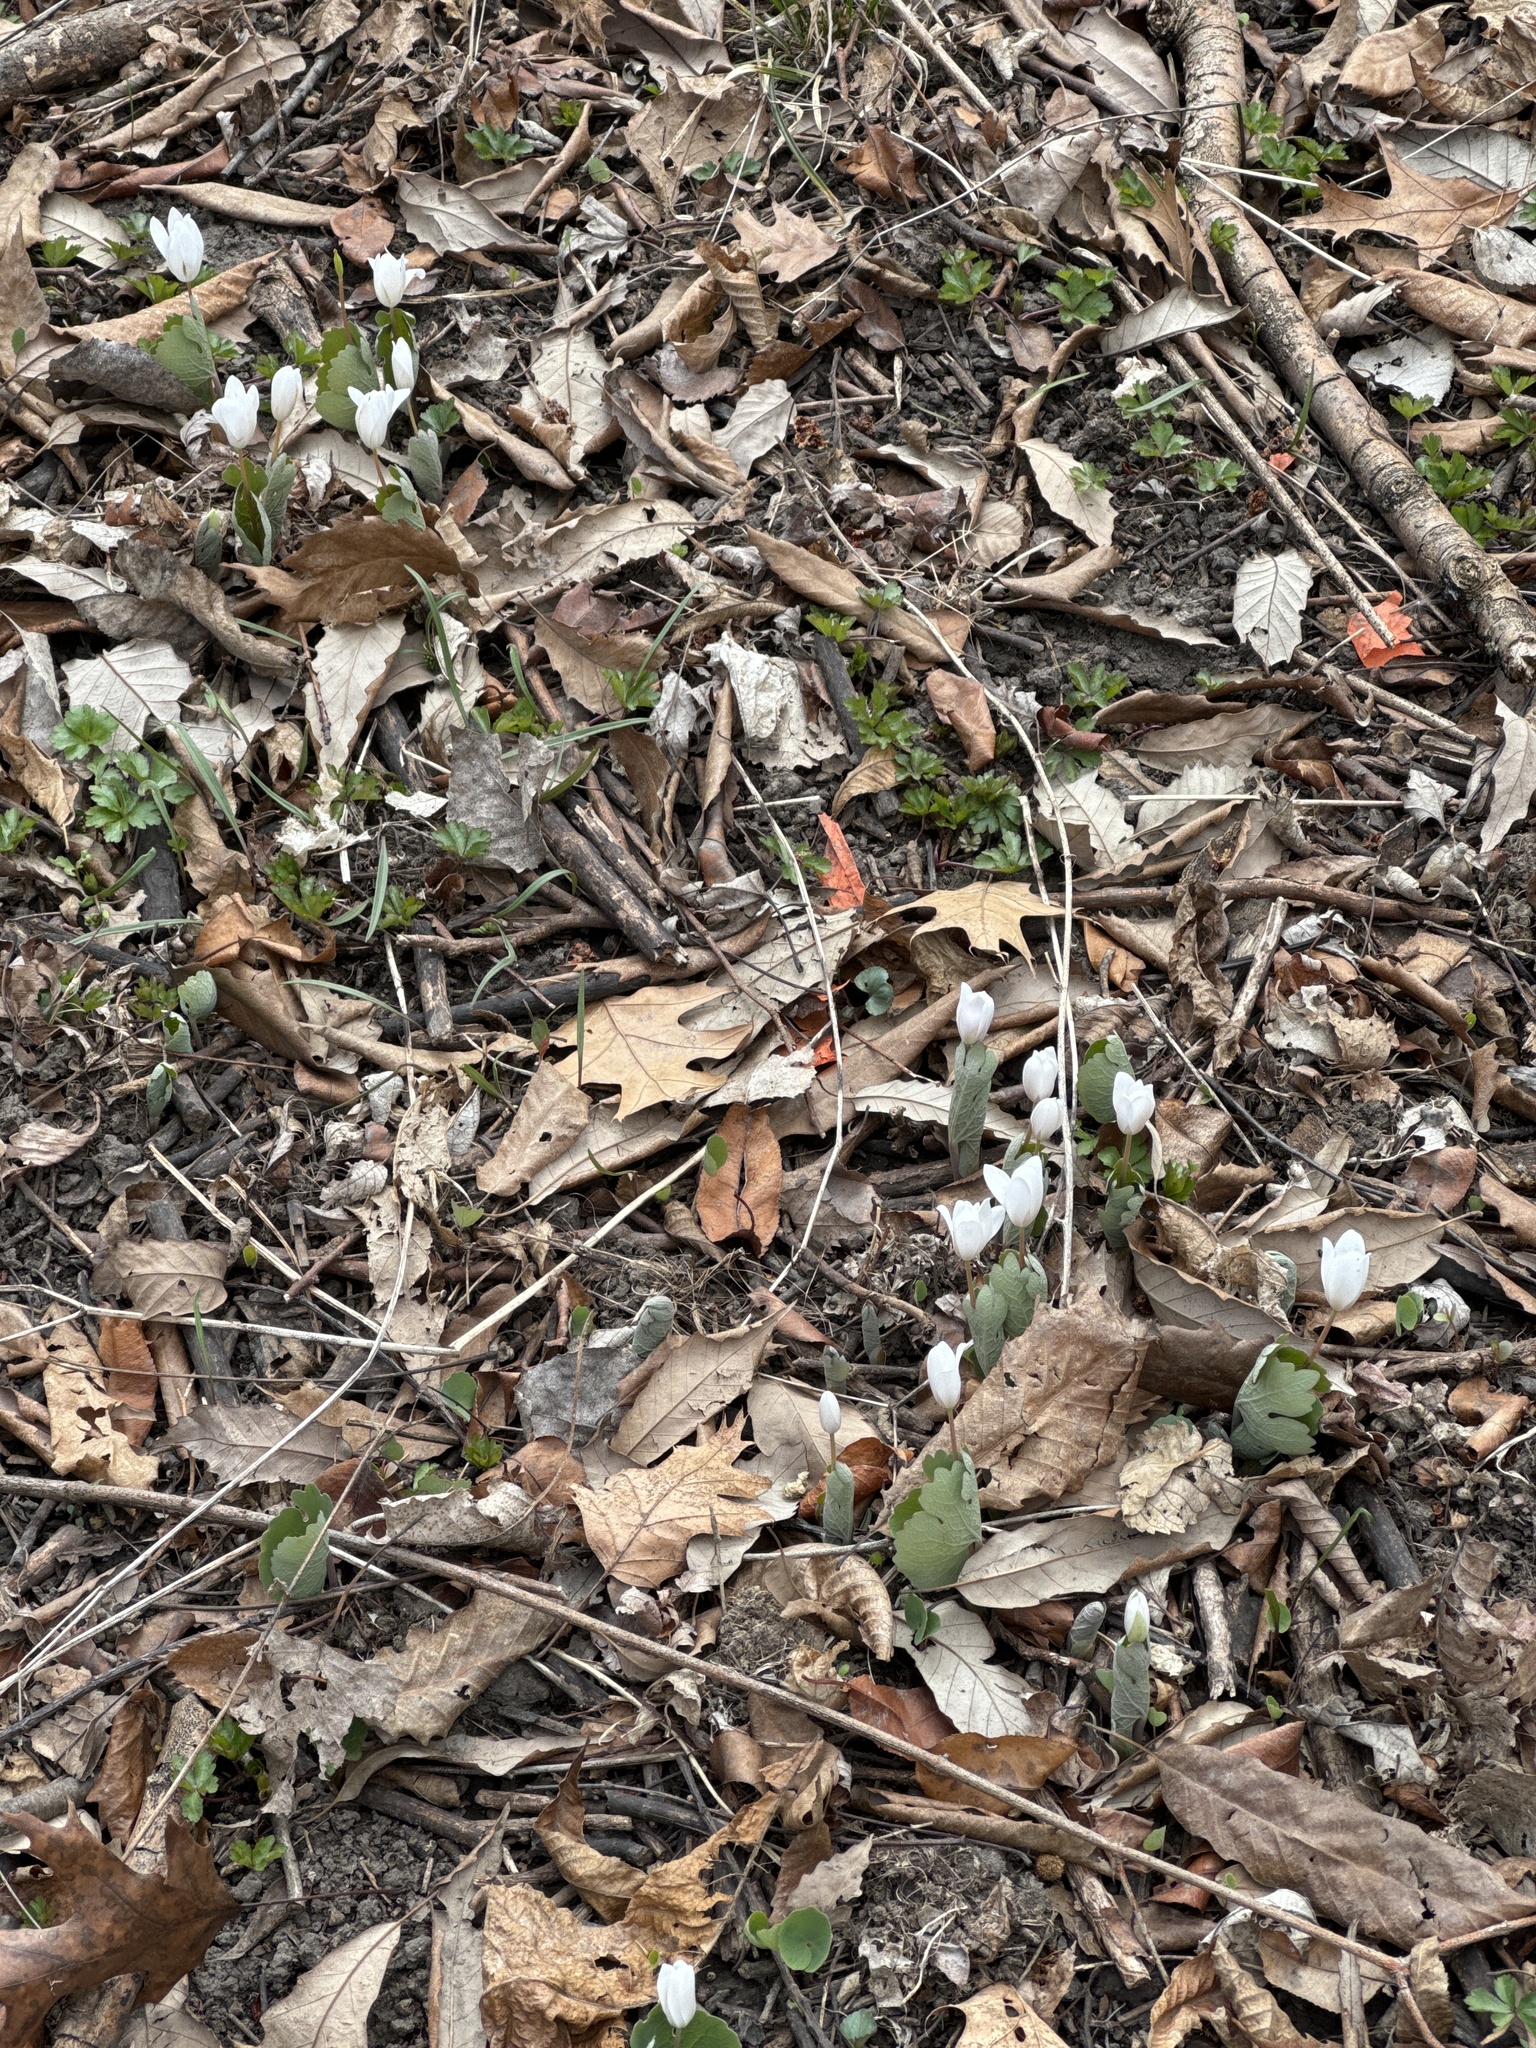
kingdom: Plantae
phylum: Tracheophyta
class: Magnoliopsida
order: Ranunculales
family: Papaveraceae
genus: Sanguinaria
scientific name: Sanguinaria canadensis
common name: Bloodroot
